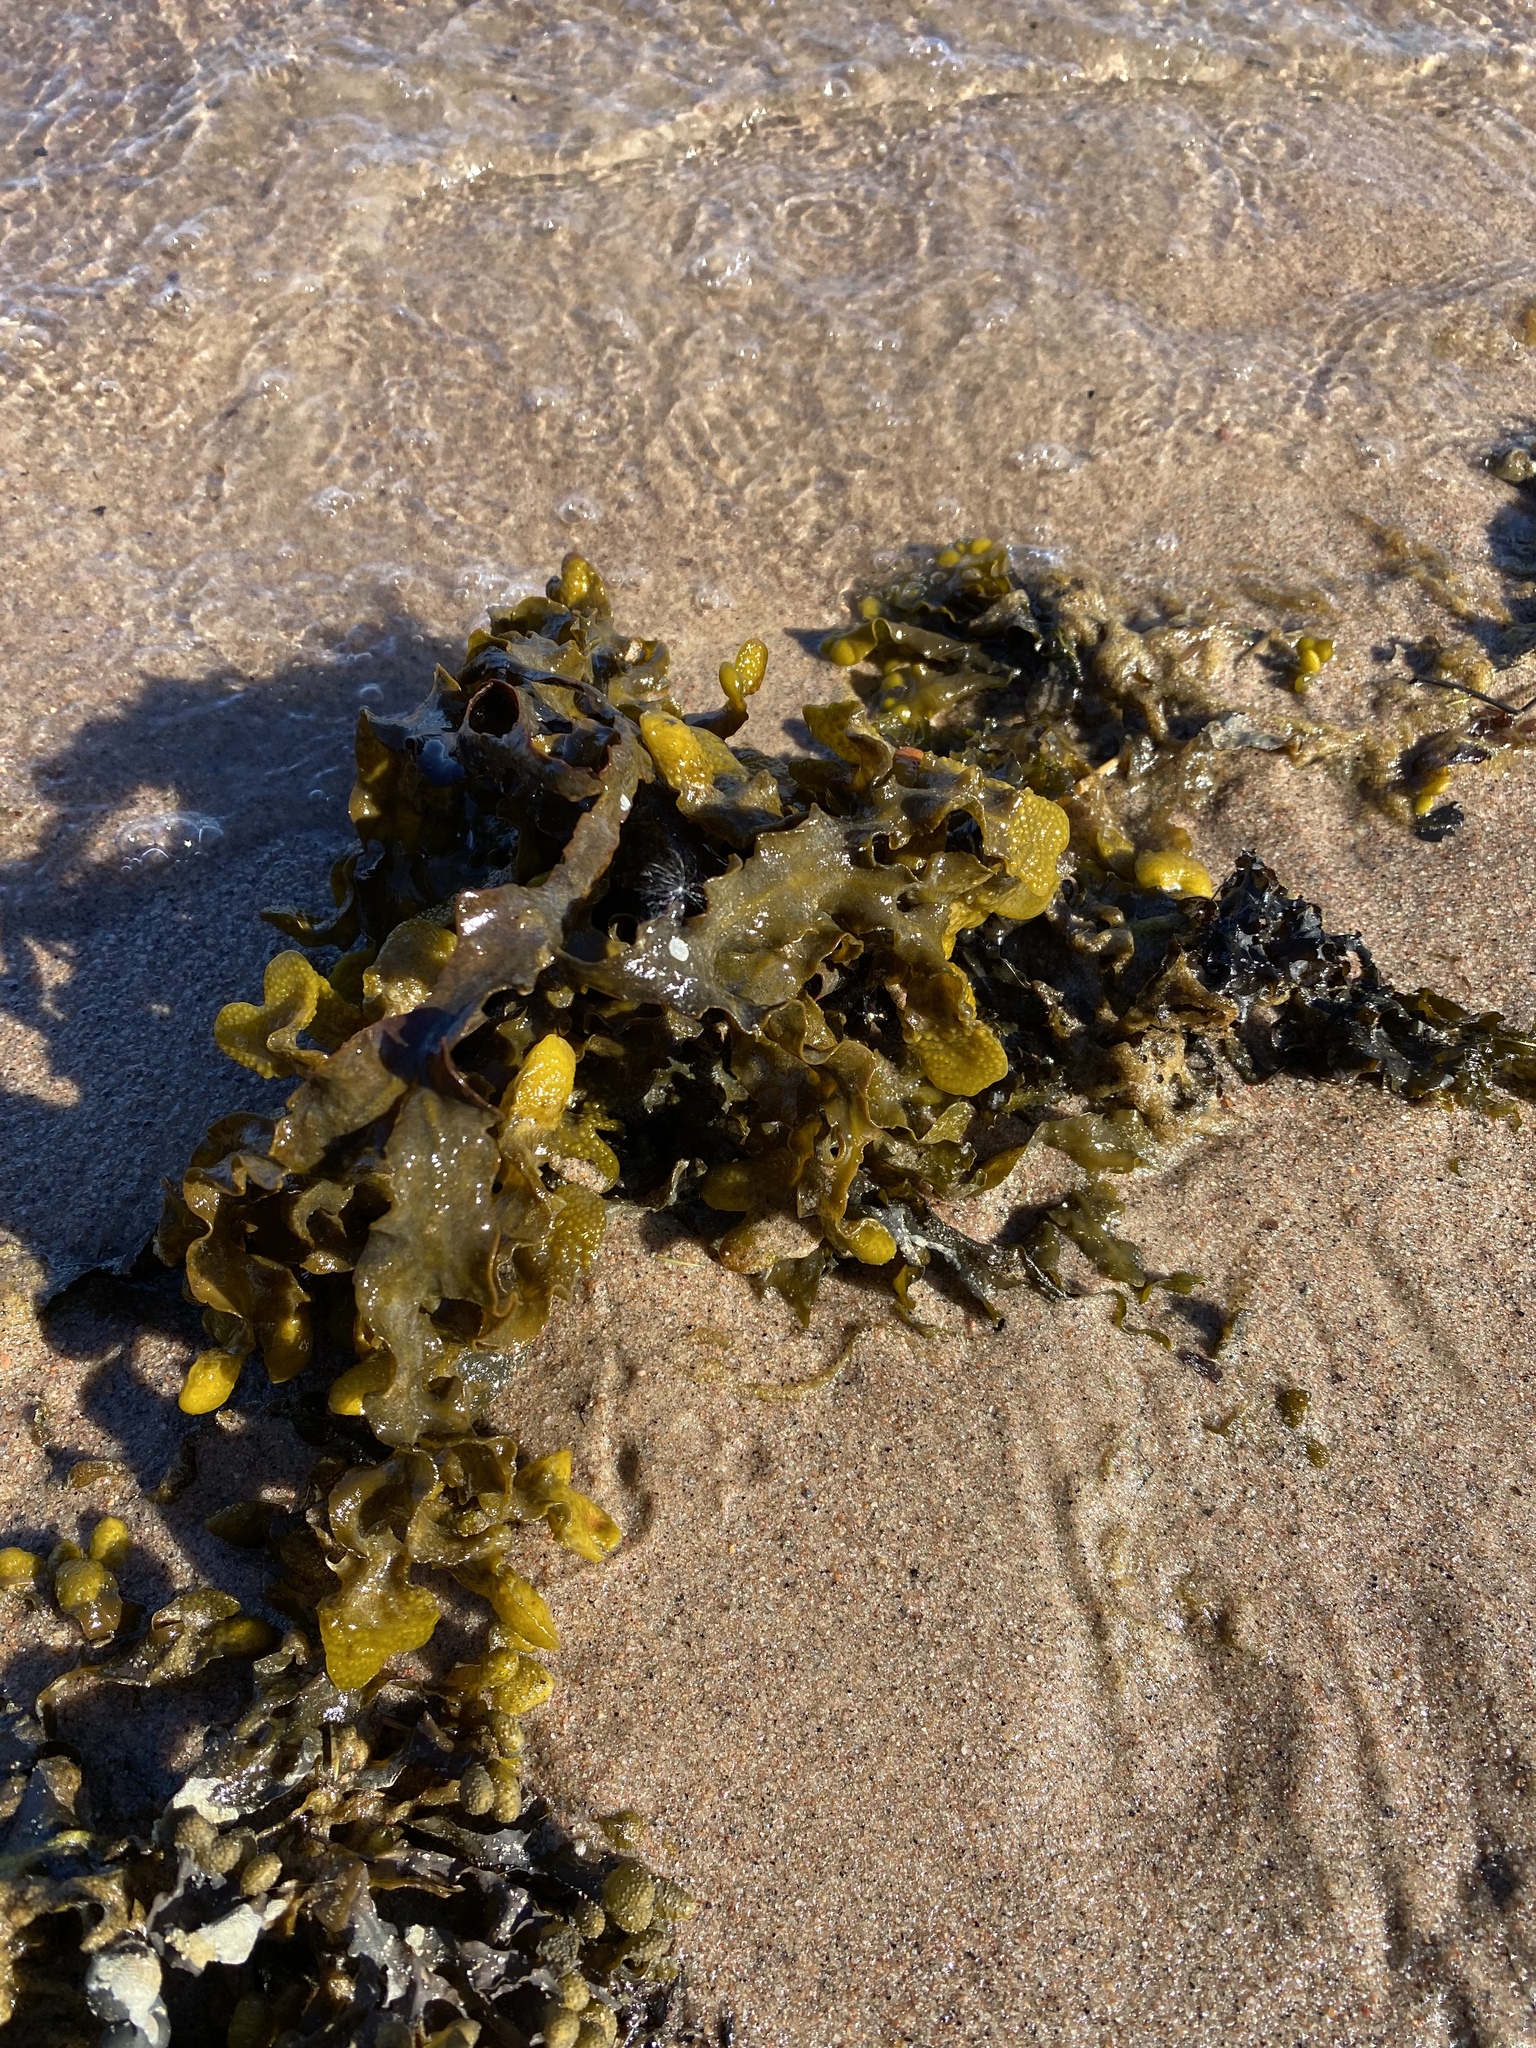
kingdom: Chromista
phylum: Ochrophyta
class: Phaeophyceae
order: Fucales
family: Fucaceae
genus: Fucus
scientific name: Fucus vesiculosus
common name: Bladder wrack
